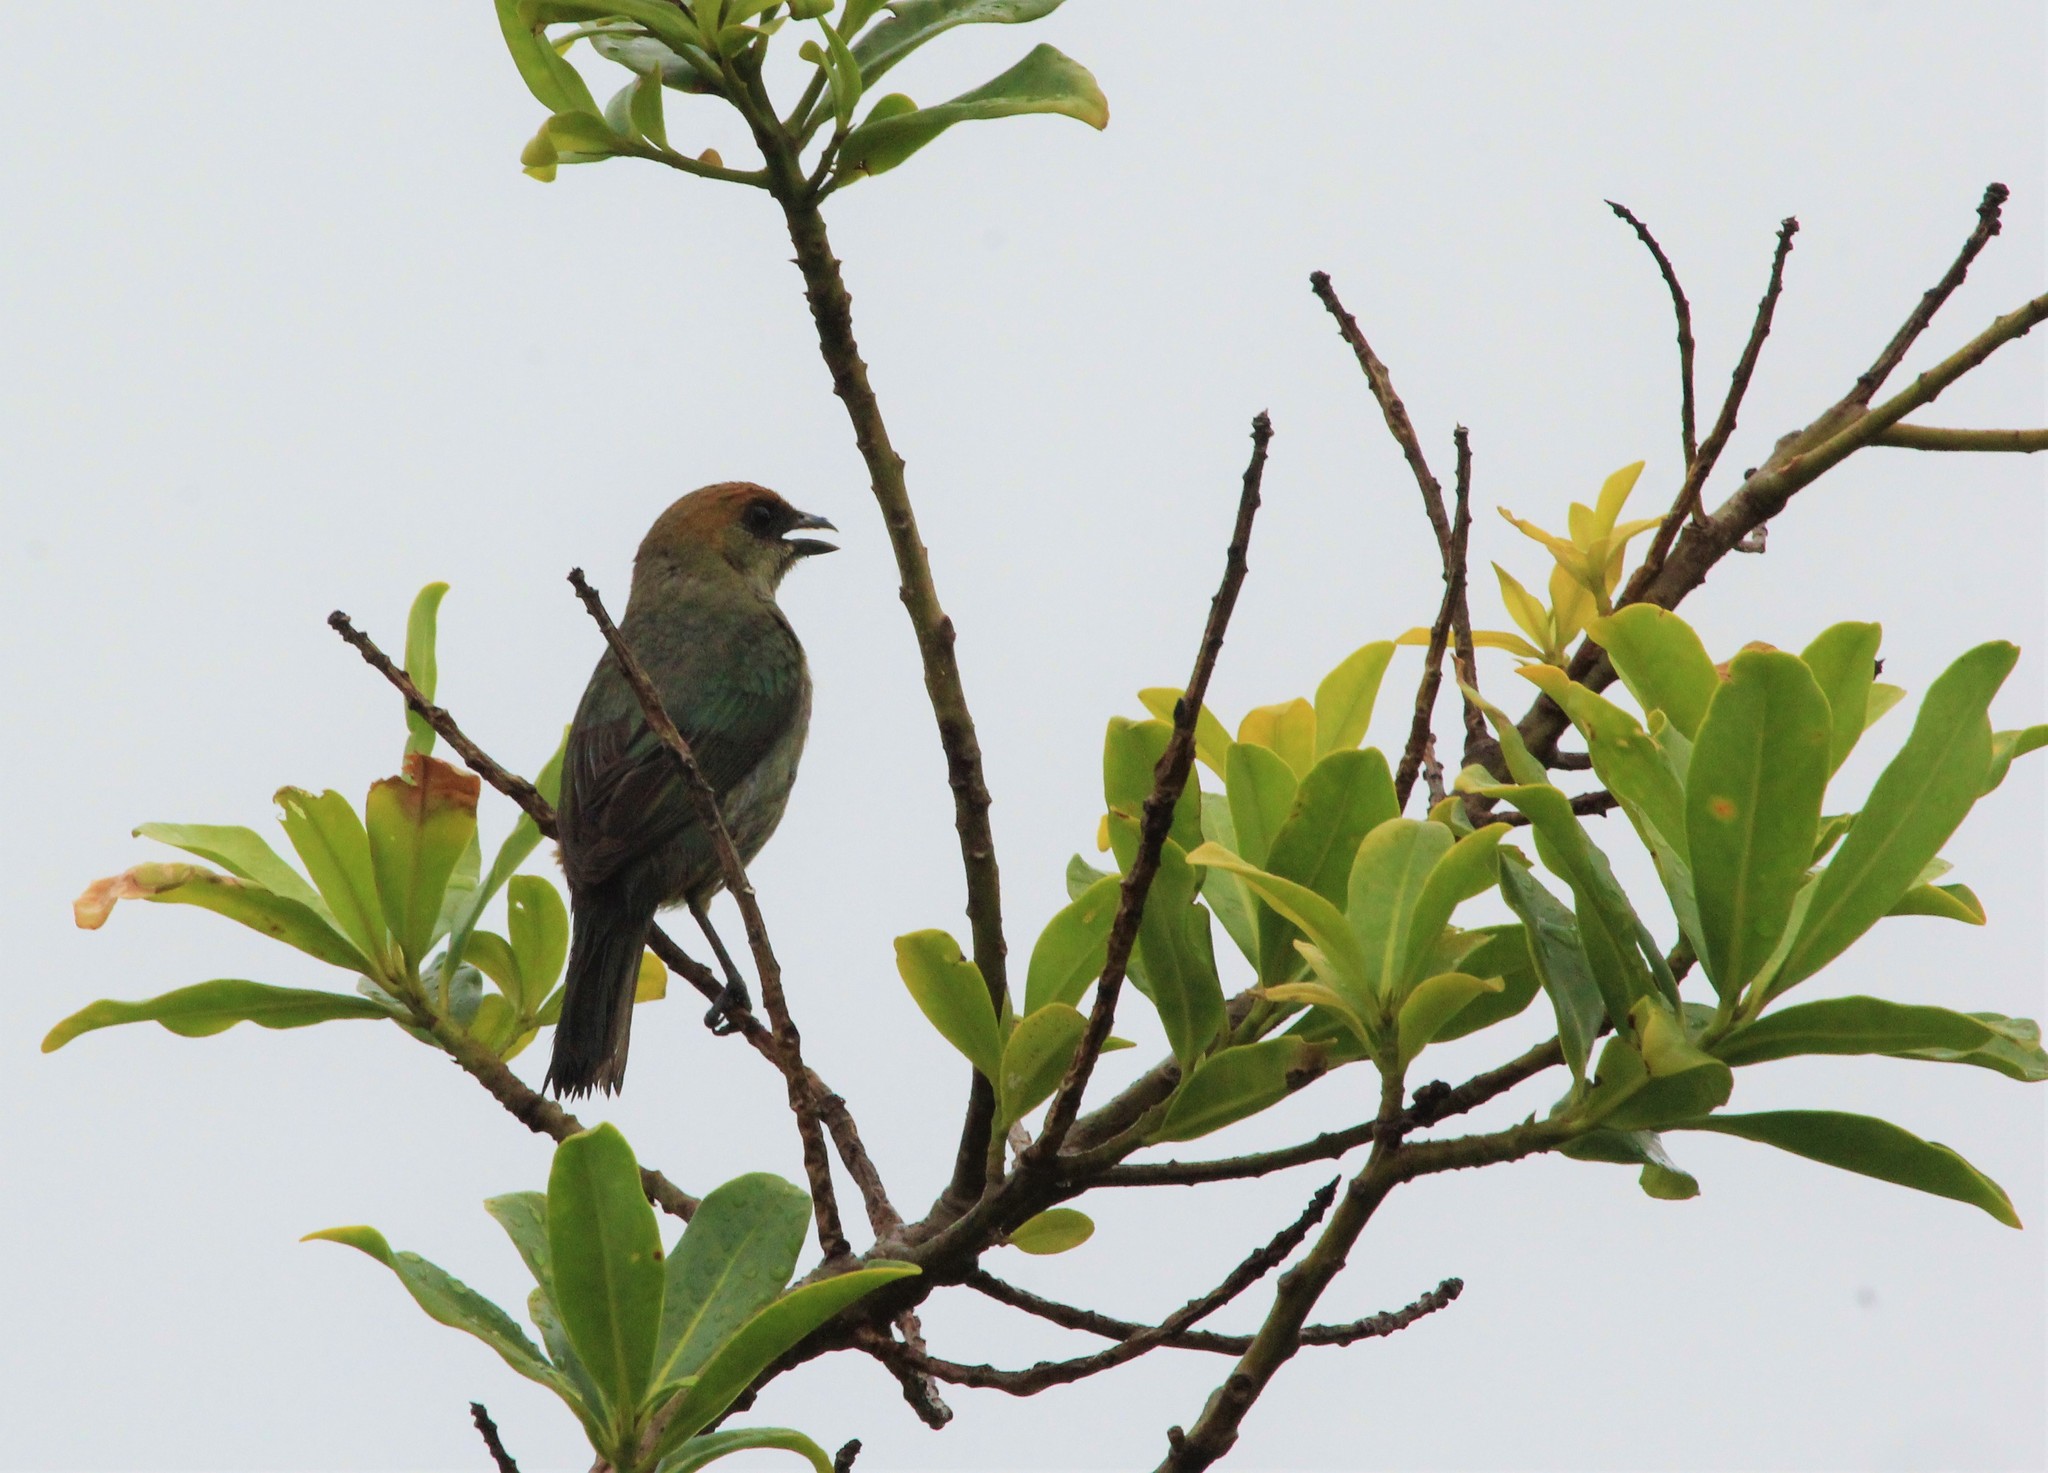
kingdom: Animalia
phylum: Chordata
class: Aves
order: Passeriformes
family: Thraupidae
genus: Stilpnia
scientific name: Stilpnia preciosa
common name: Chestnut-backed tanager
